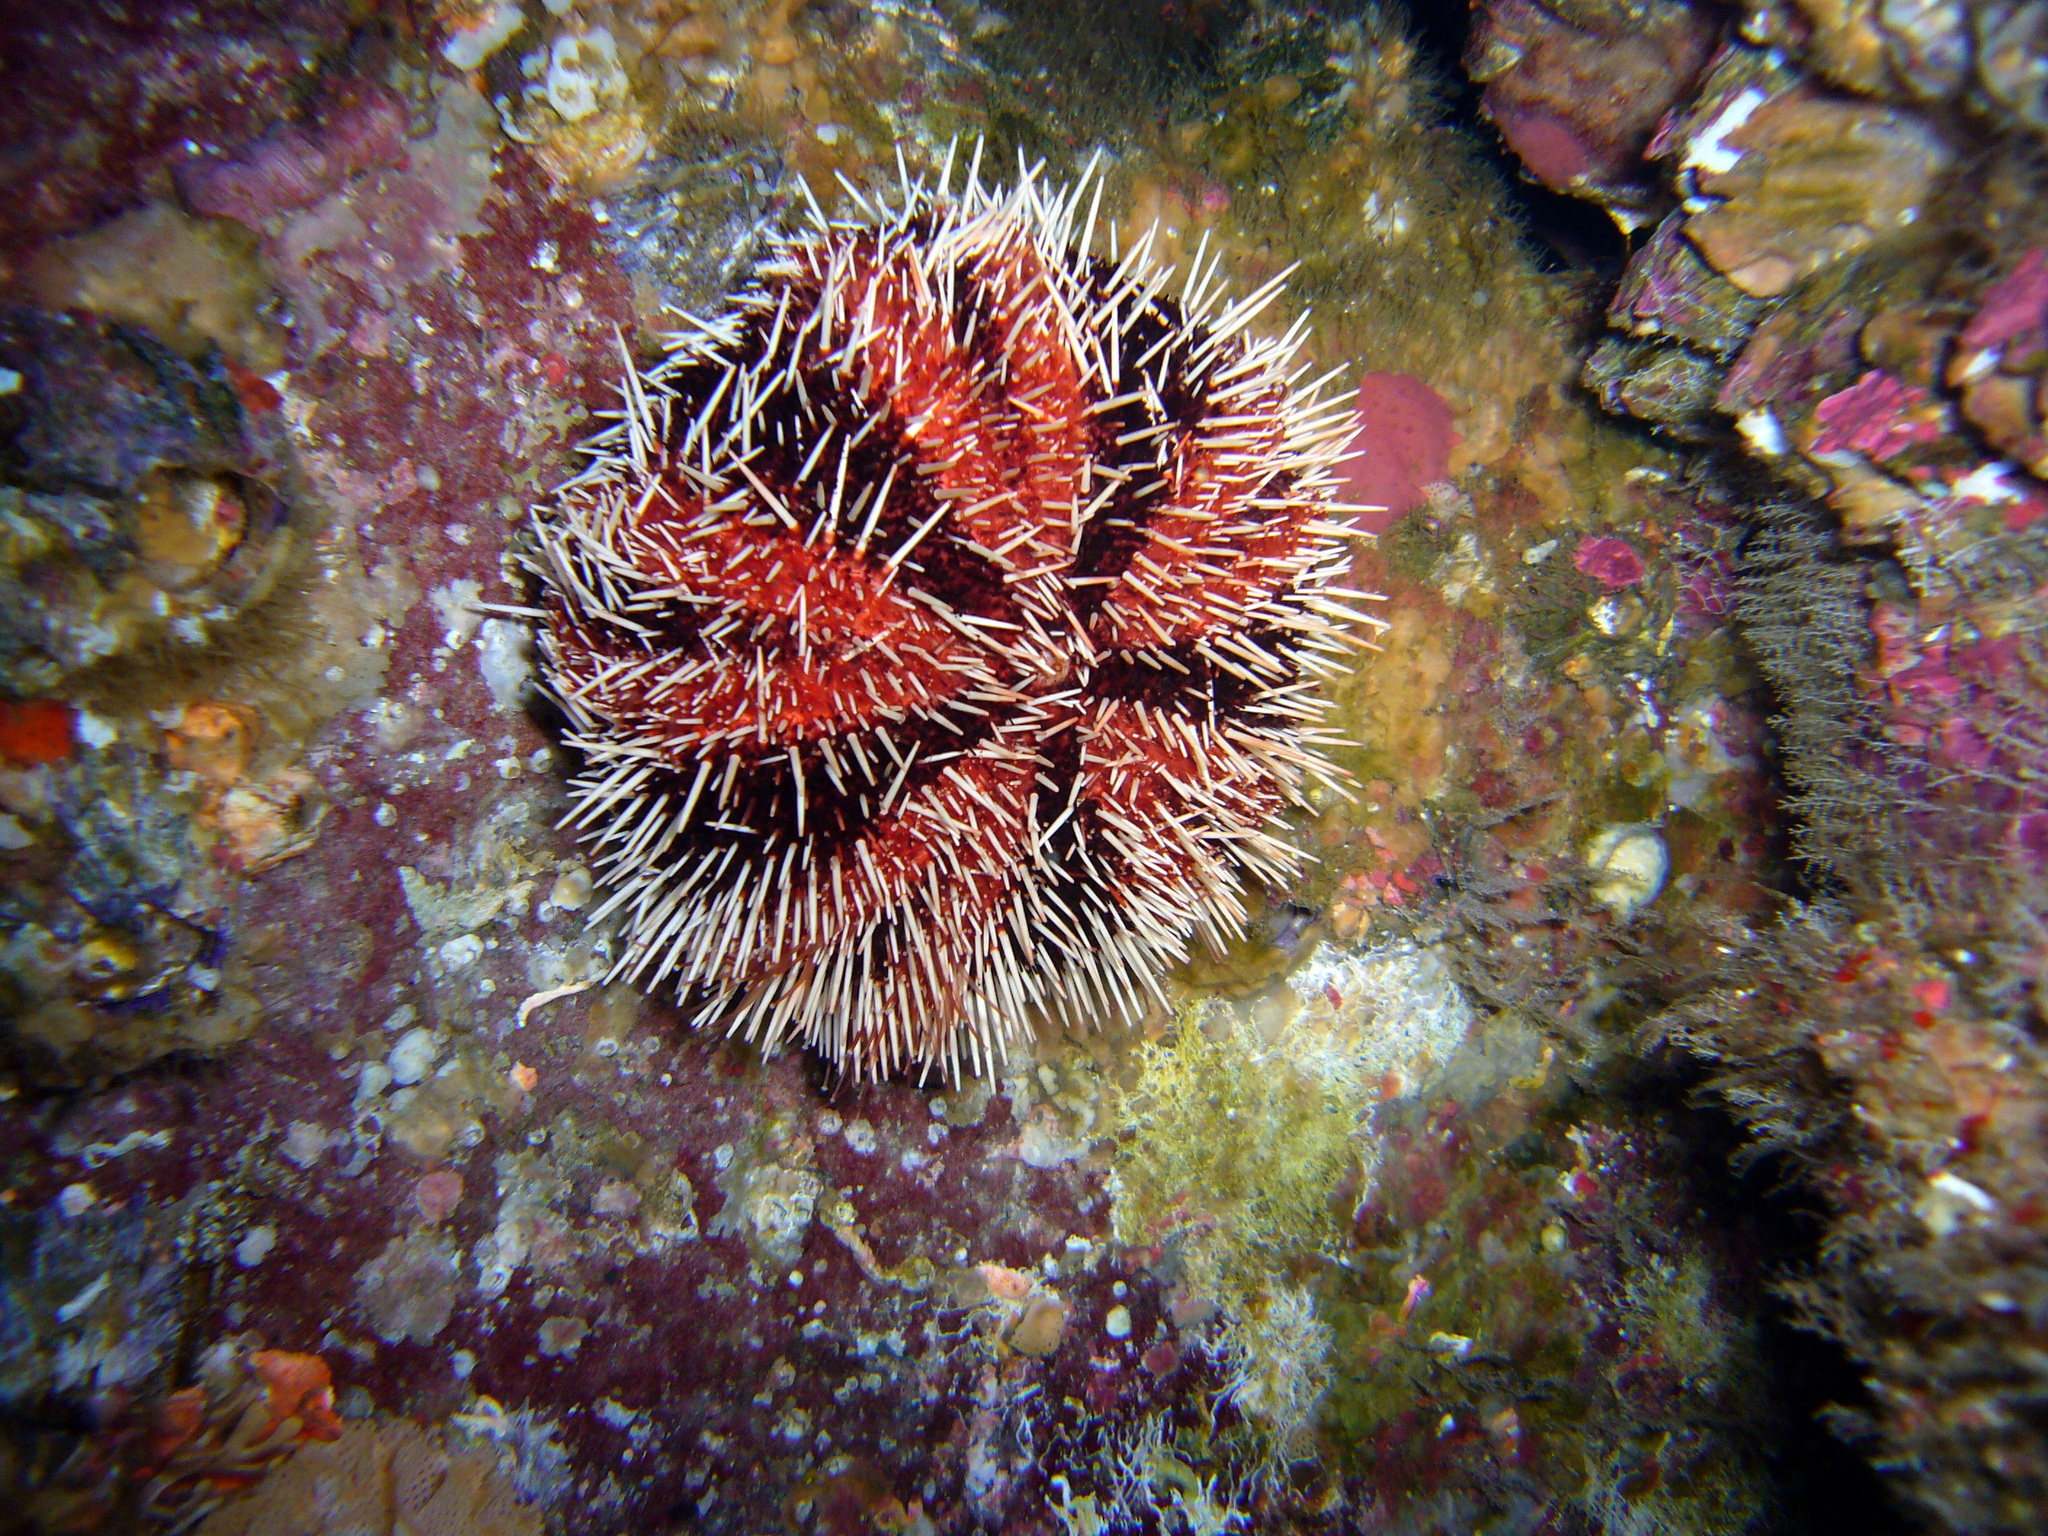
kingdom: Animalia
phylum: Echinodermata
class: Echinoidea
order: Camarodonta
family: Toxopneustidae
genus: Tripneustes
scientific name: Tripneustes gratilla
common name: Bischofsmützenseeigel
